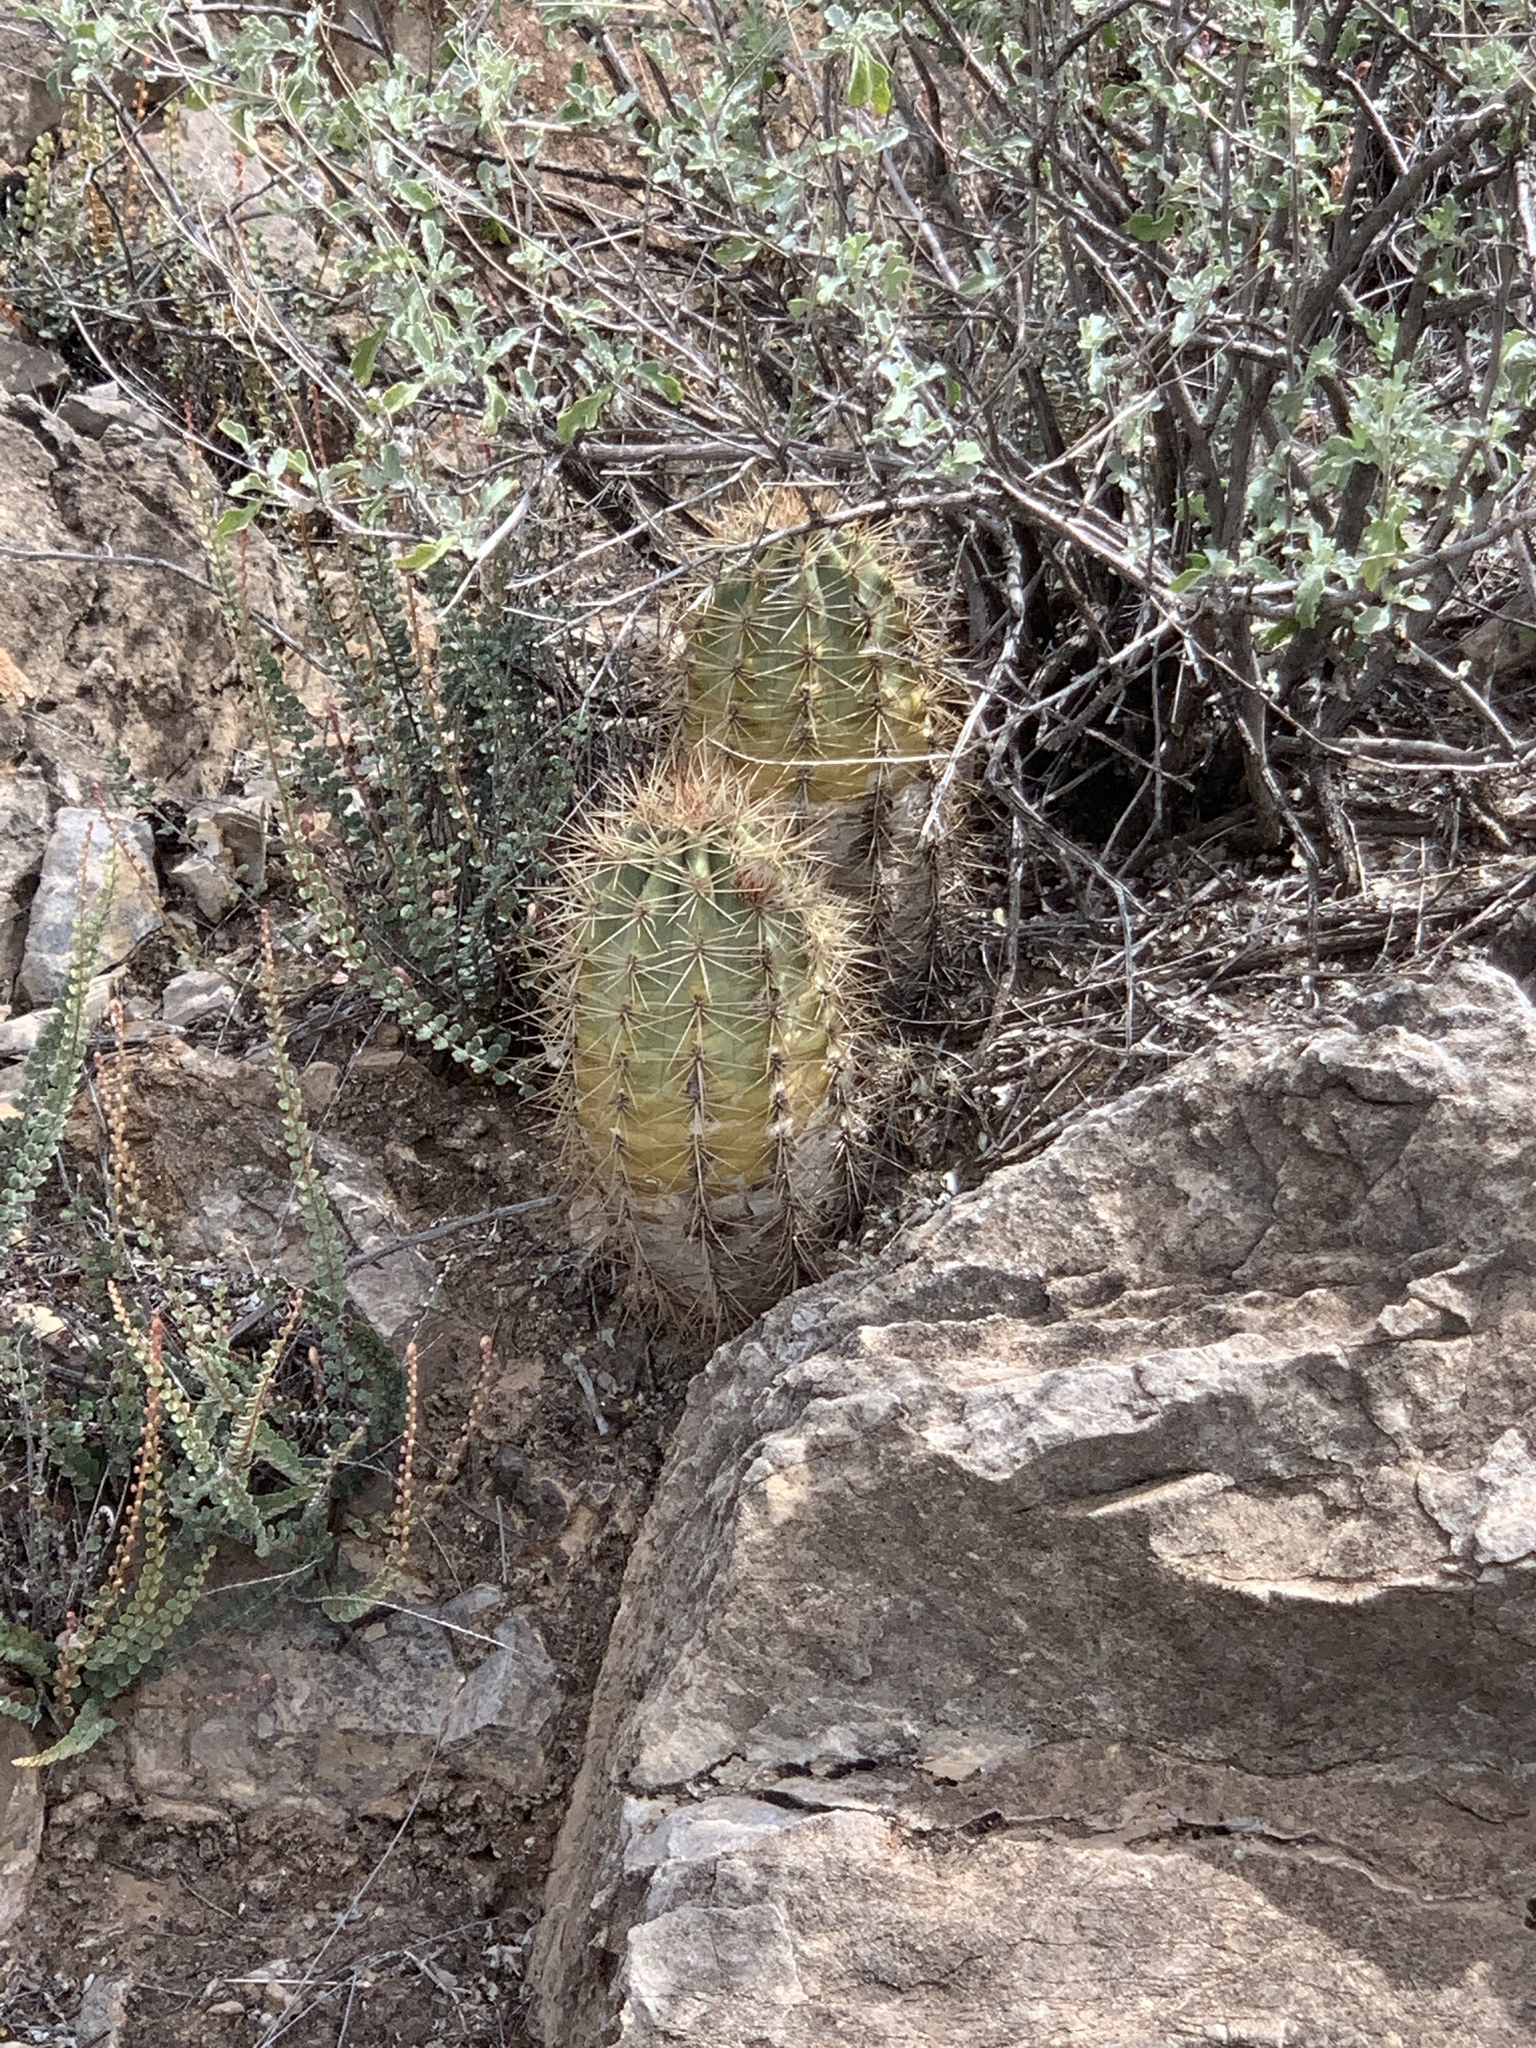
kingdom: Plantae
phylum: Tracheophyta
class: Magnoliopsida
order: Caryophyllales
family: Cactaceae
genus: Echinocereus
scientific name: Echinocereus coccineus
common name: Scarlet hedgehog cactus
